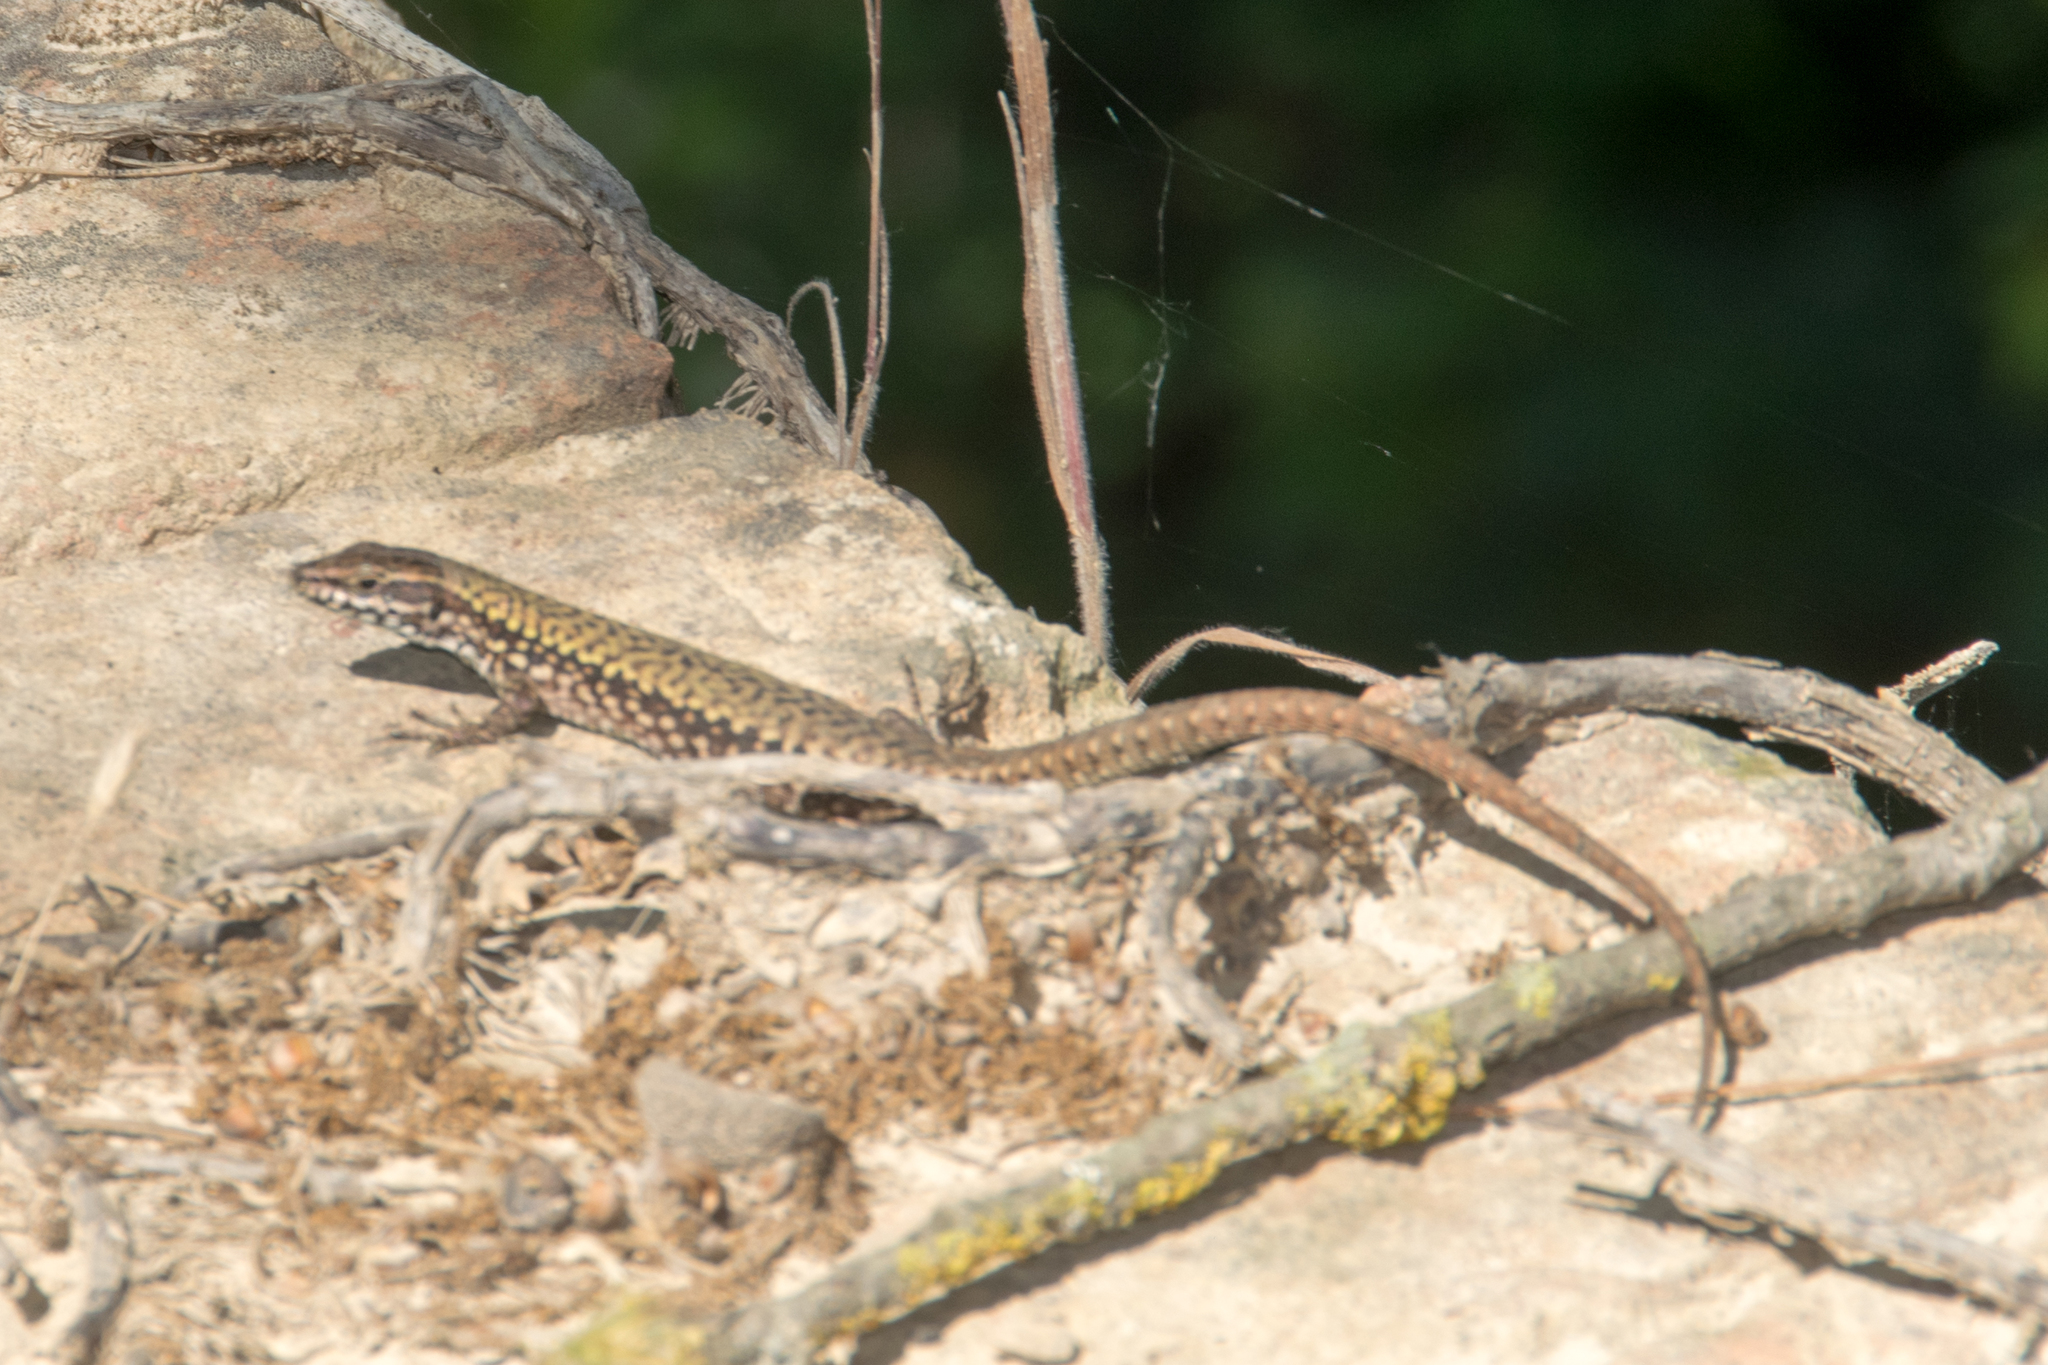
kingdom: Animalia
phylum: Chordata
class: Squamata
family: Lacertidae
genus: Podarcis
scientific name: Podarcis muralis
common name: Common wall lizard
